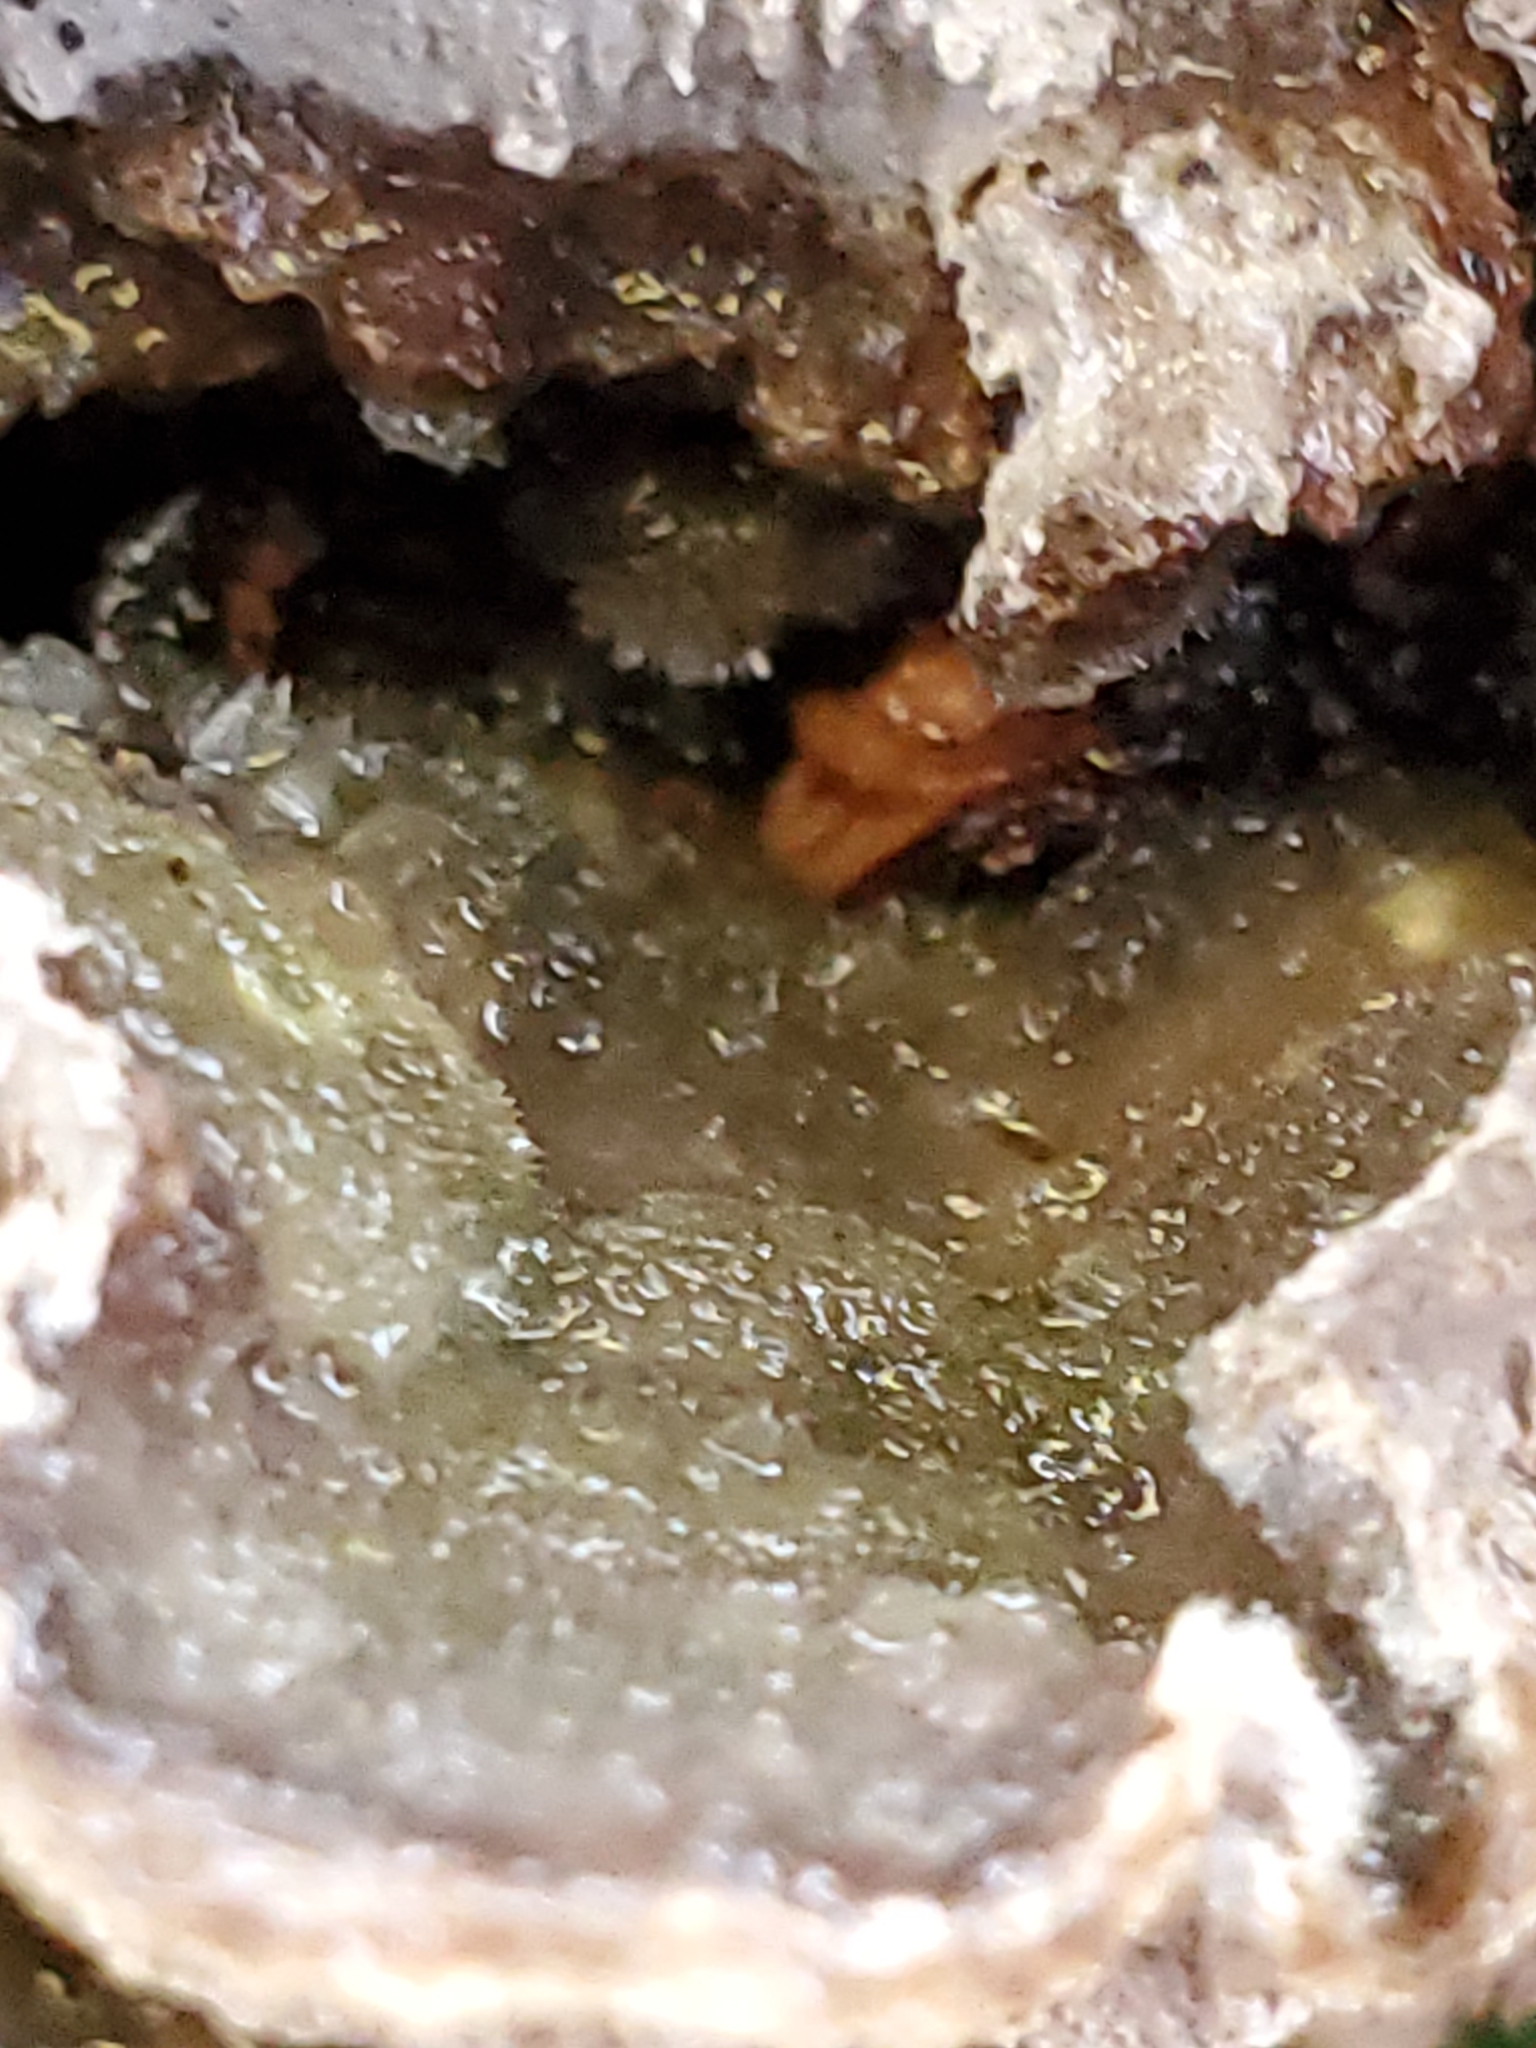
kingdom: Fungi
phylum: Basidiomycota
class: Agaricomycetes
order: Polyporales
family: Cerrenaceae
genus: Cerrena
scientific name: Cerrena unicolor
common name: Mossy maze polypore
